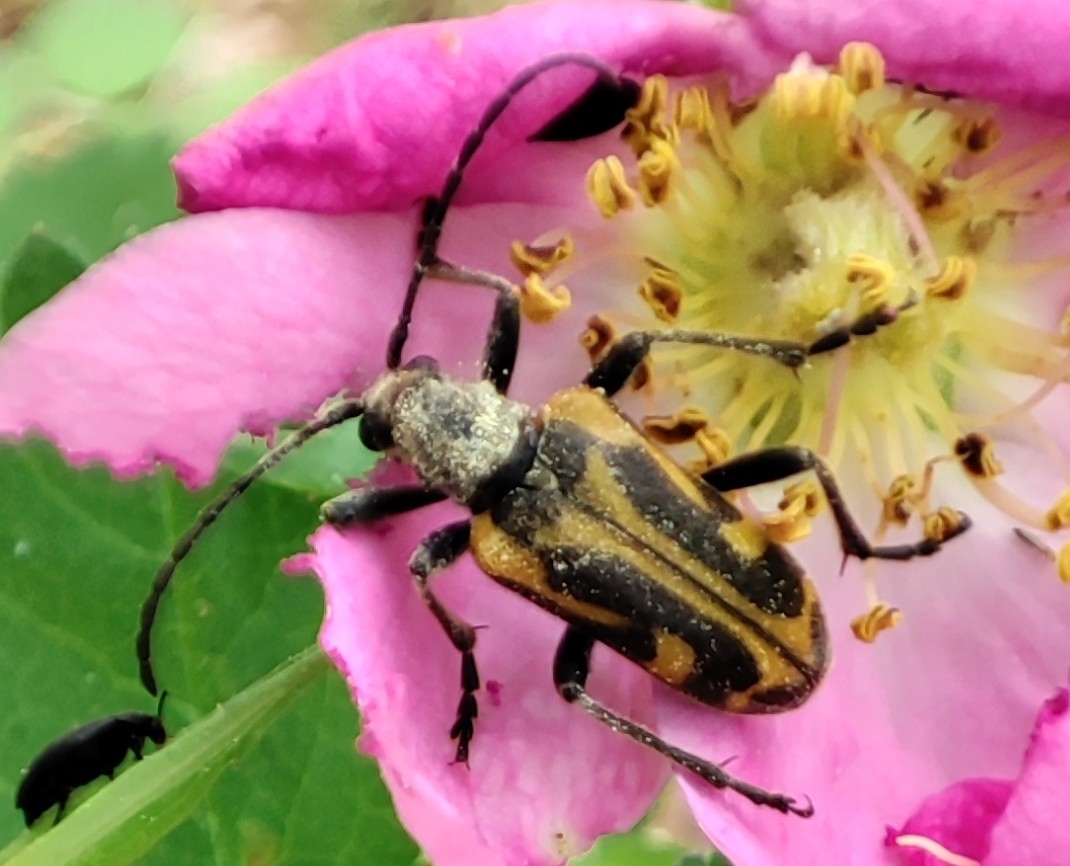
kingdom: Animalia
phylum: Arthropoda
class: Insecta
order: Coleoptera
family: Cerambycidae
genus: Brachyta
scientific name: Brachyta interrogationis
